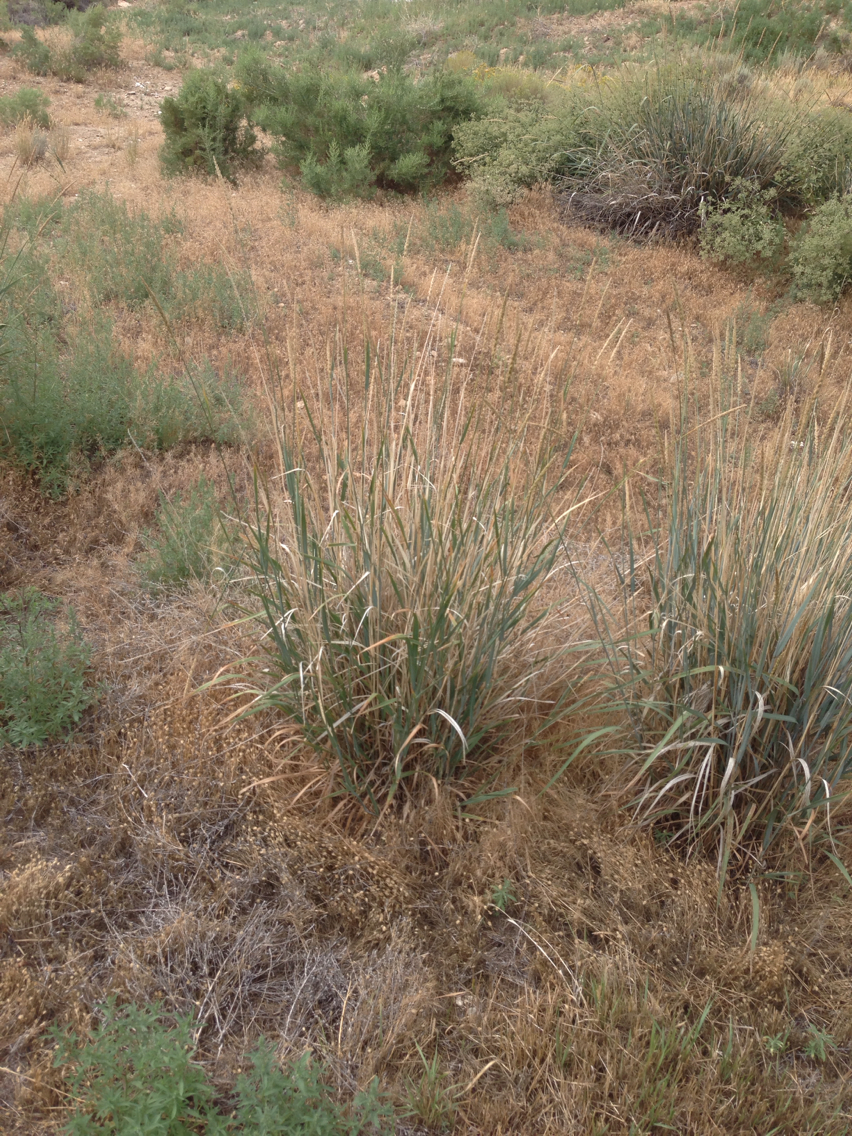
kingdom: Plantae
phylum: Tracheophyta
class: Liliopsida
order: Poales
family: Poaceae
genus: Leymus
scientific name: Leymus cinereus
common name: Basin wild rye
